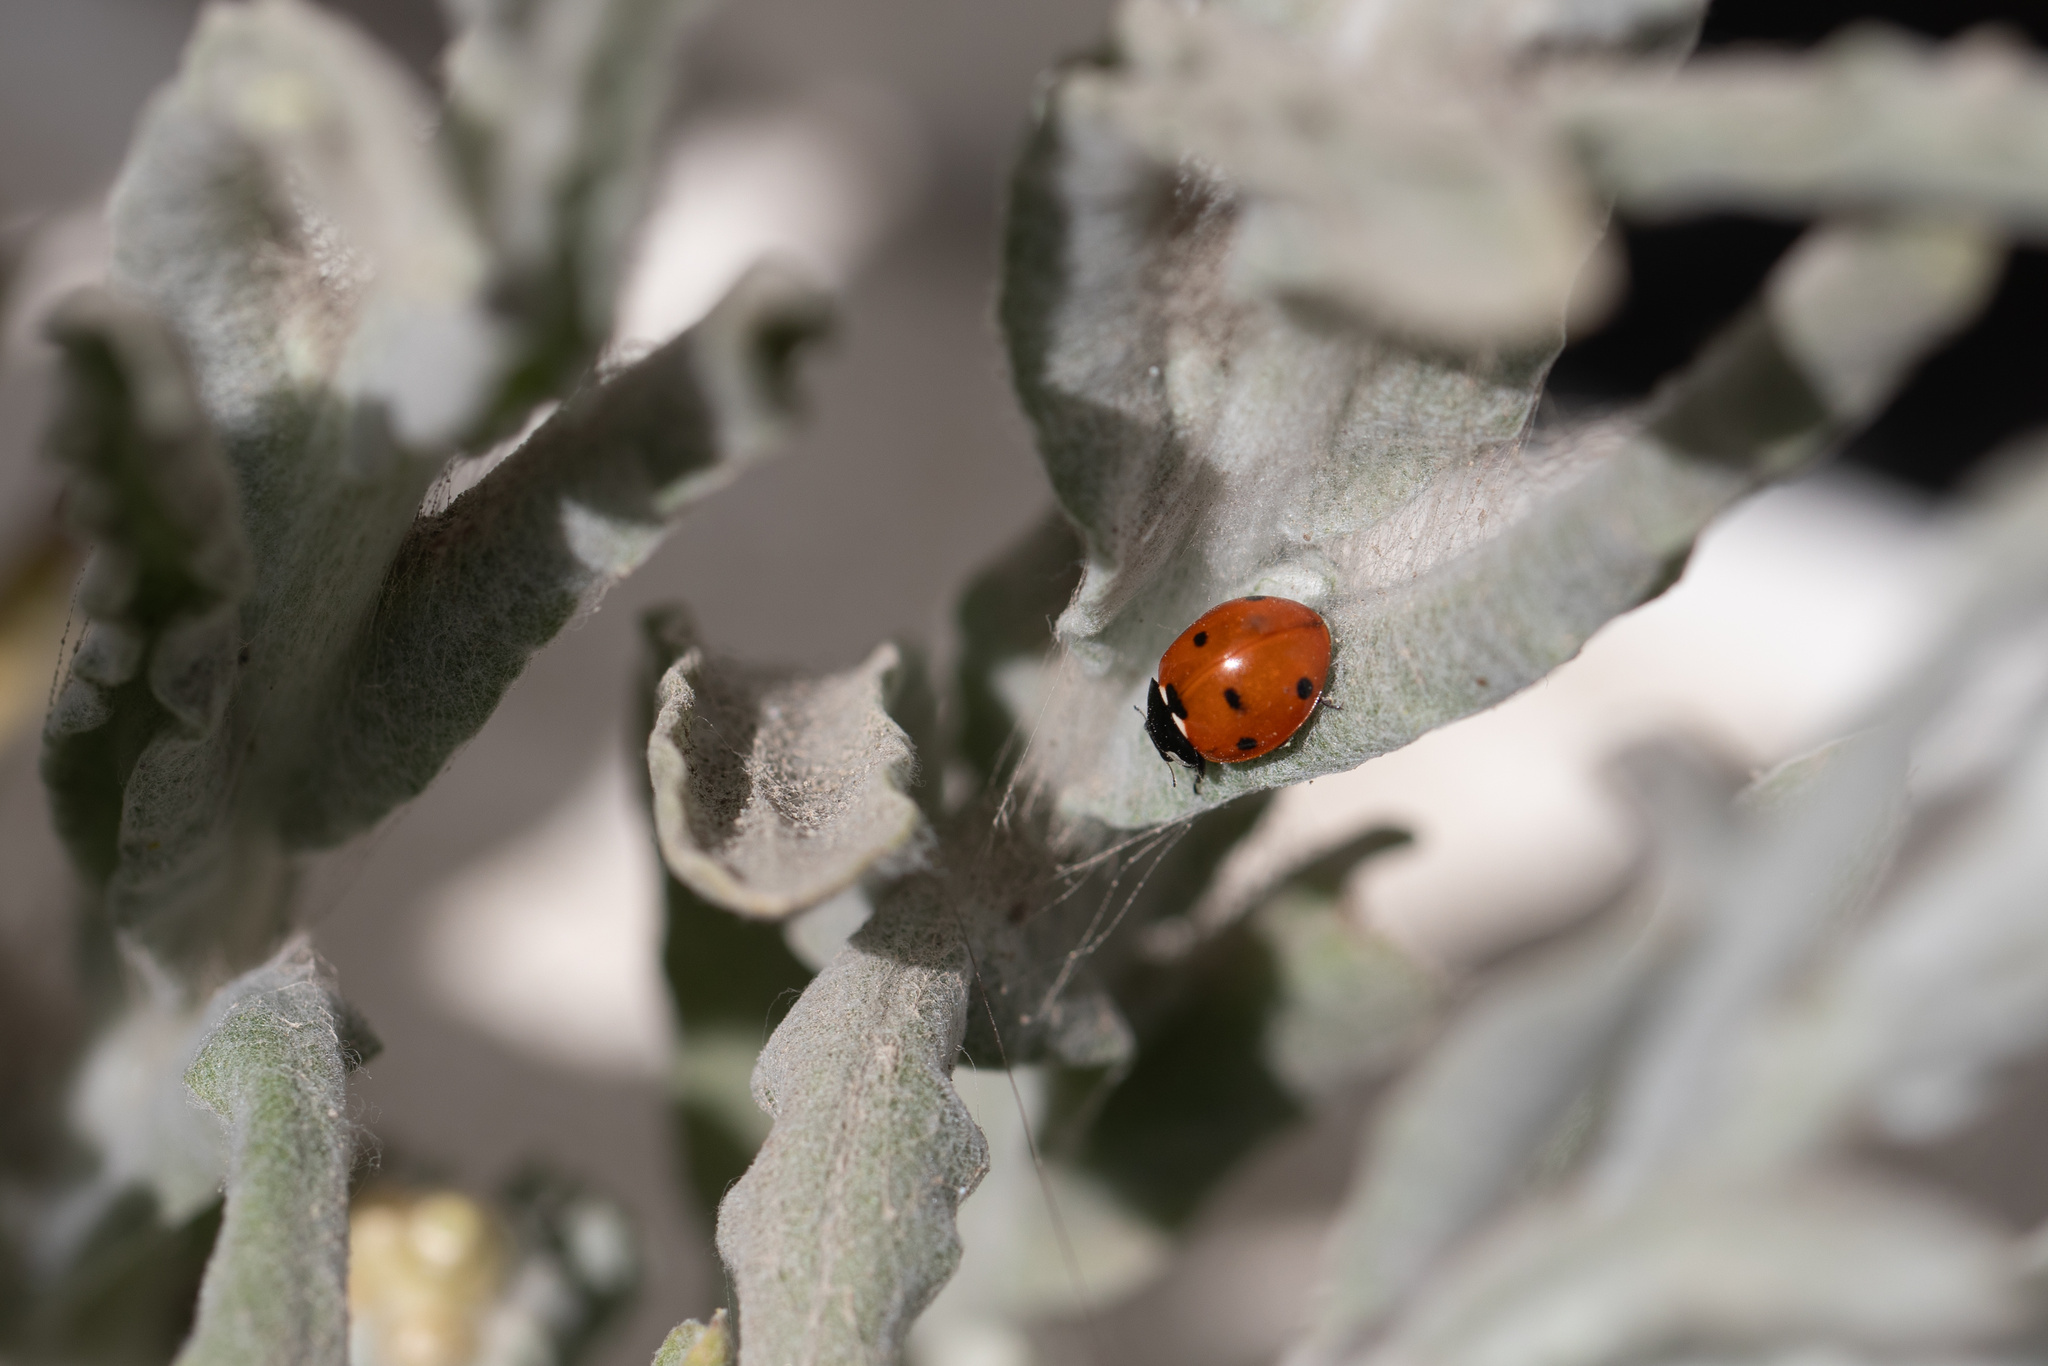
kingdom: Animalia
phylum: Arthropoda
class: Insecta
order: Coleoptera
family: Coccinellidae
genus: Coccinella
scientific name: Coccinella septempunctata
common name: Sevenspotted lady beetle
